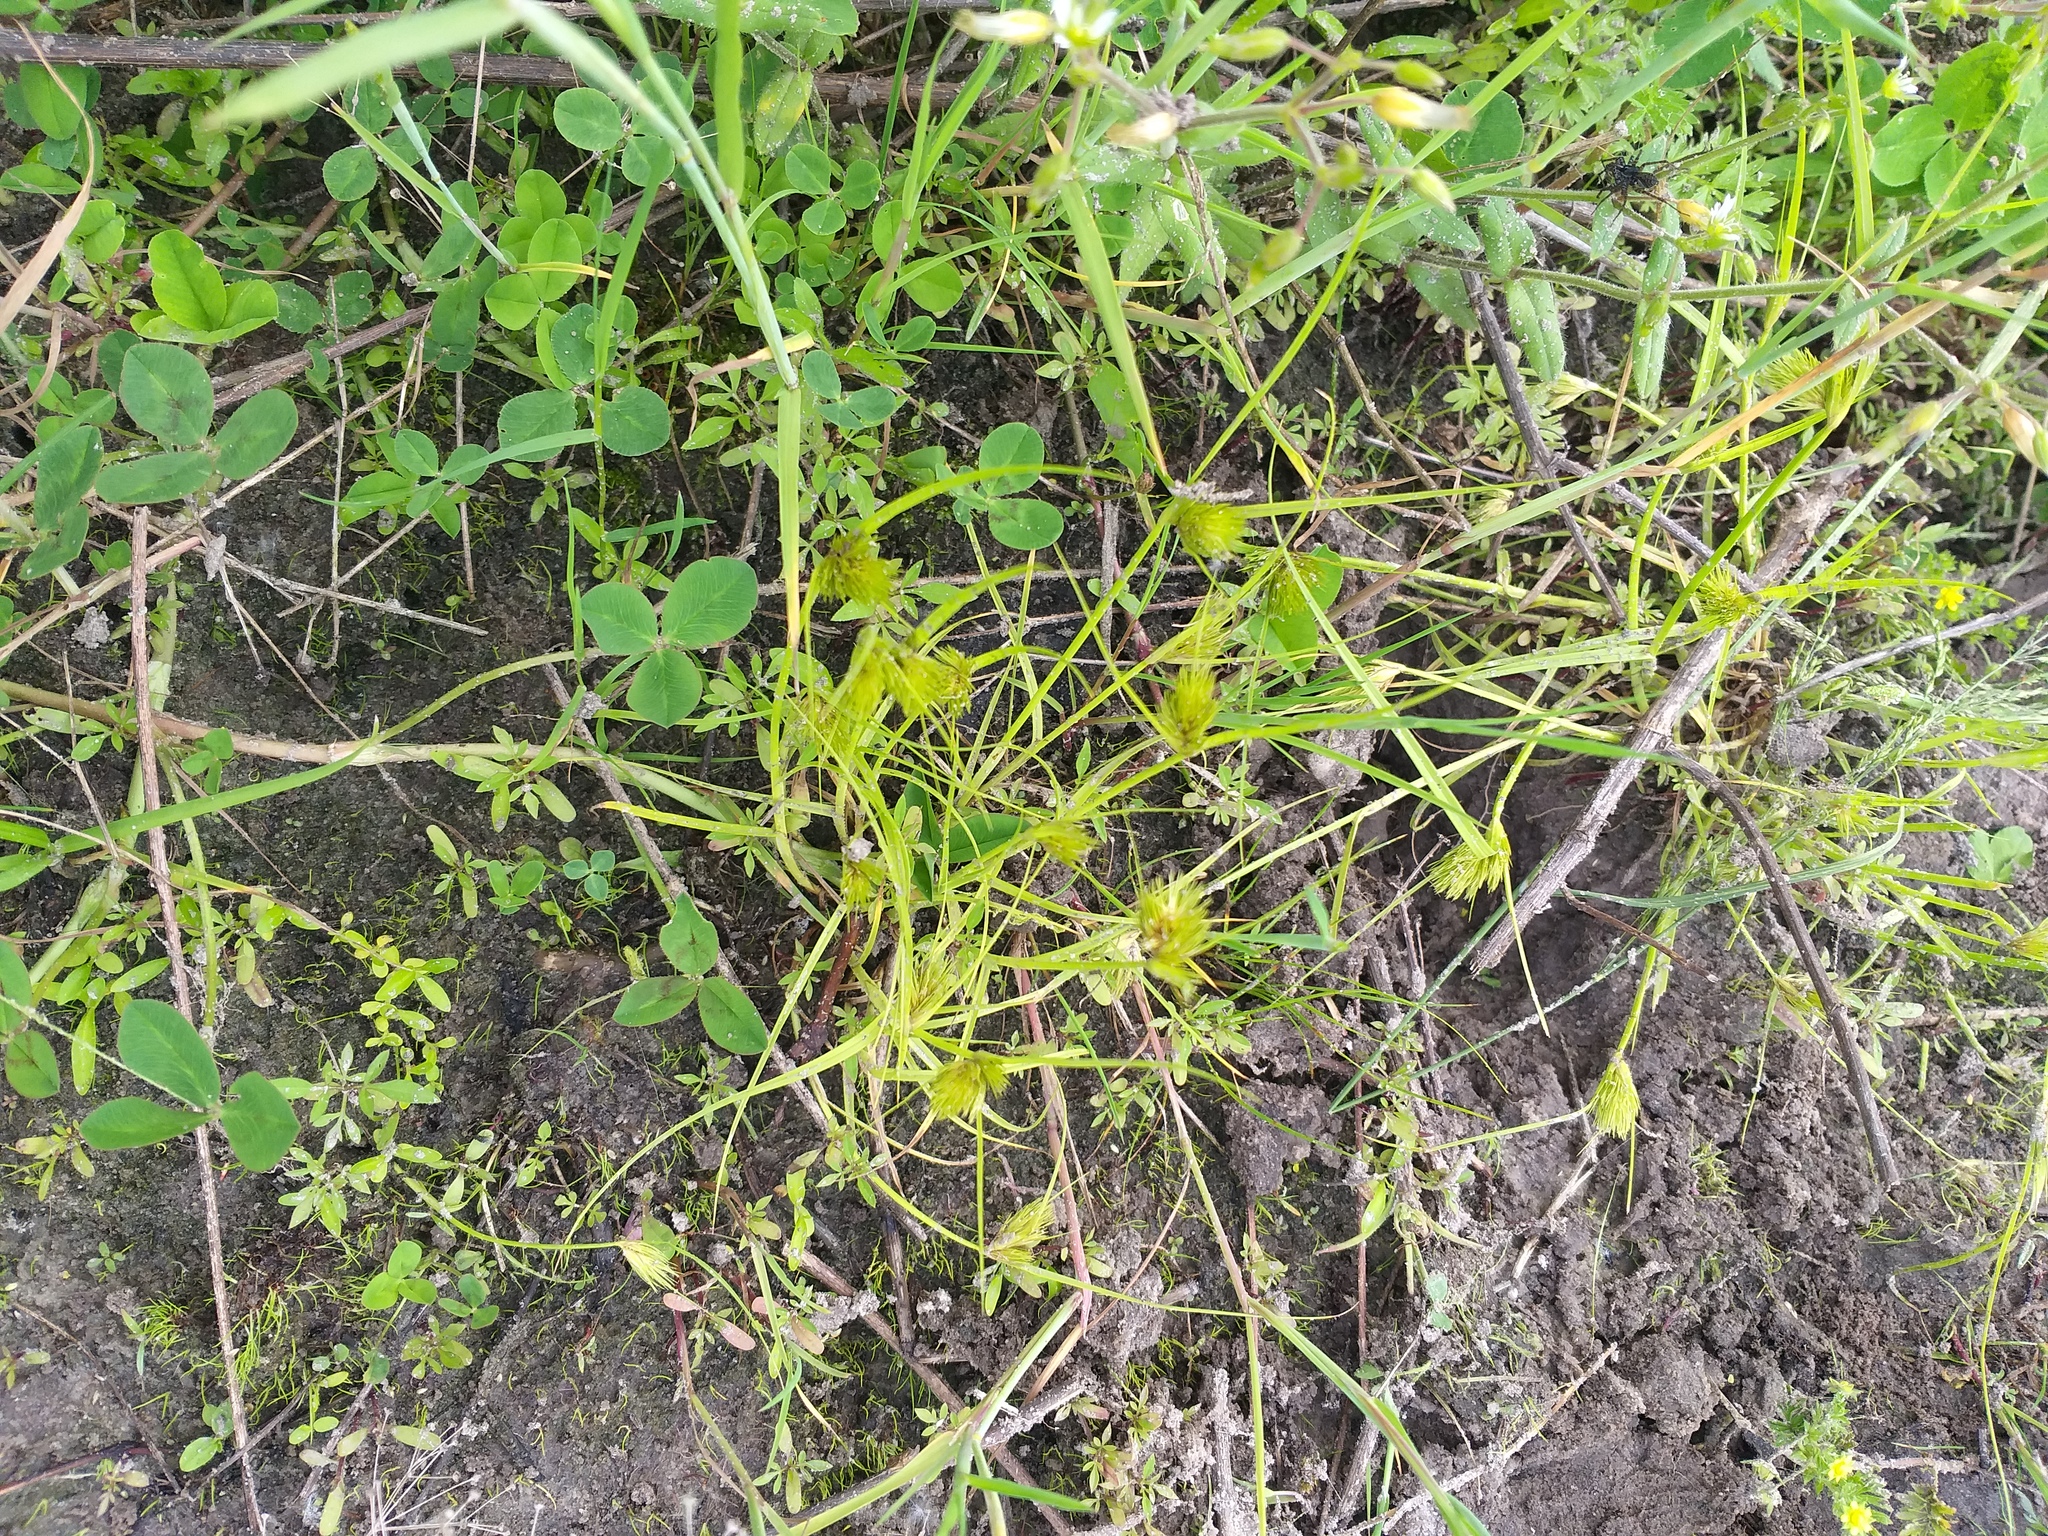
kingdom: Plantae
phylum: Tracheophyta
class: Liliopsida
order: Poales
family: Cyperaceae
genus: Carex
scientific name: Carex bohemica
